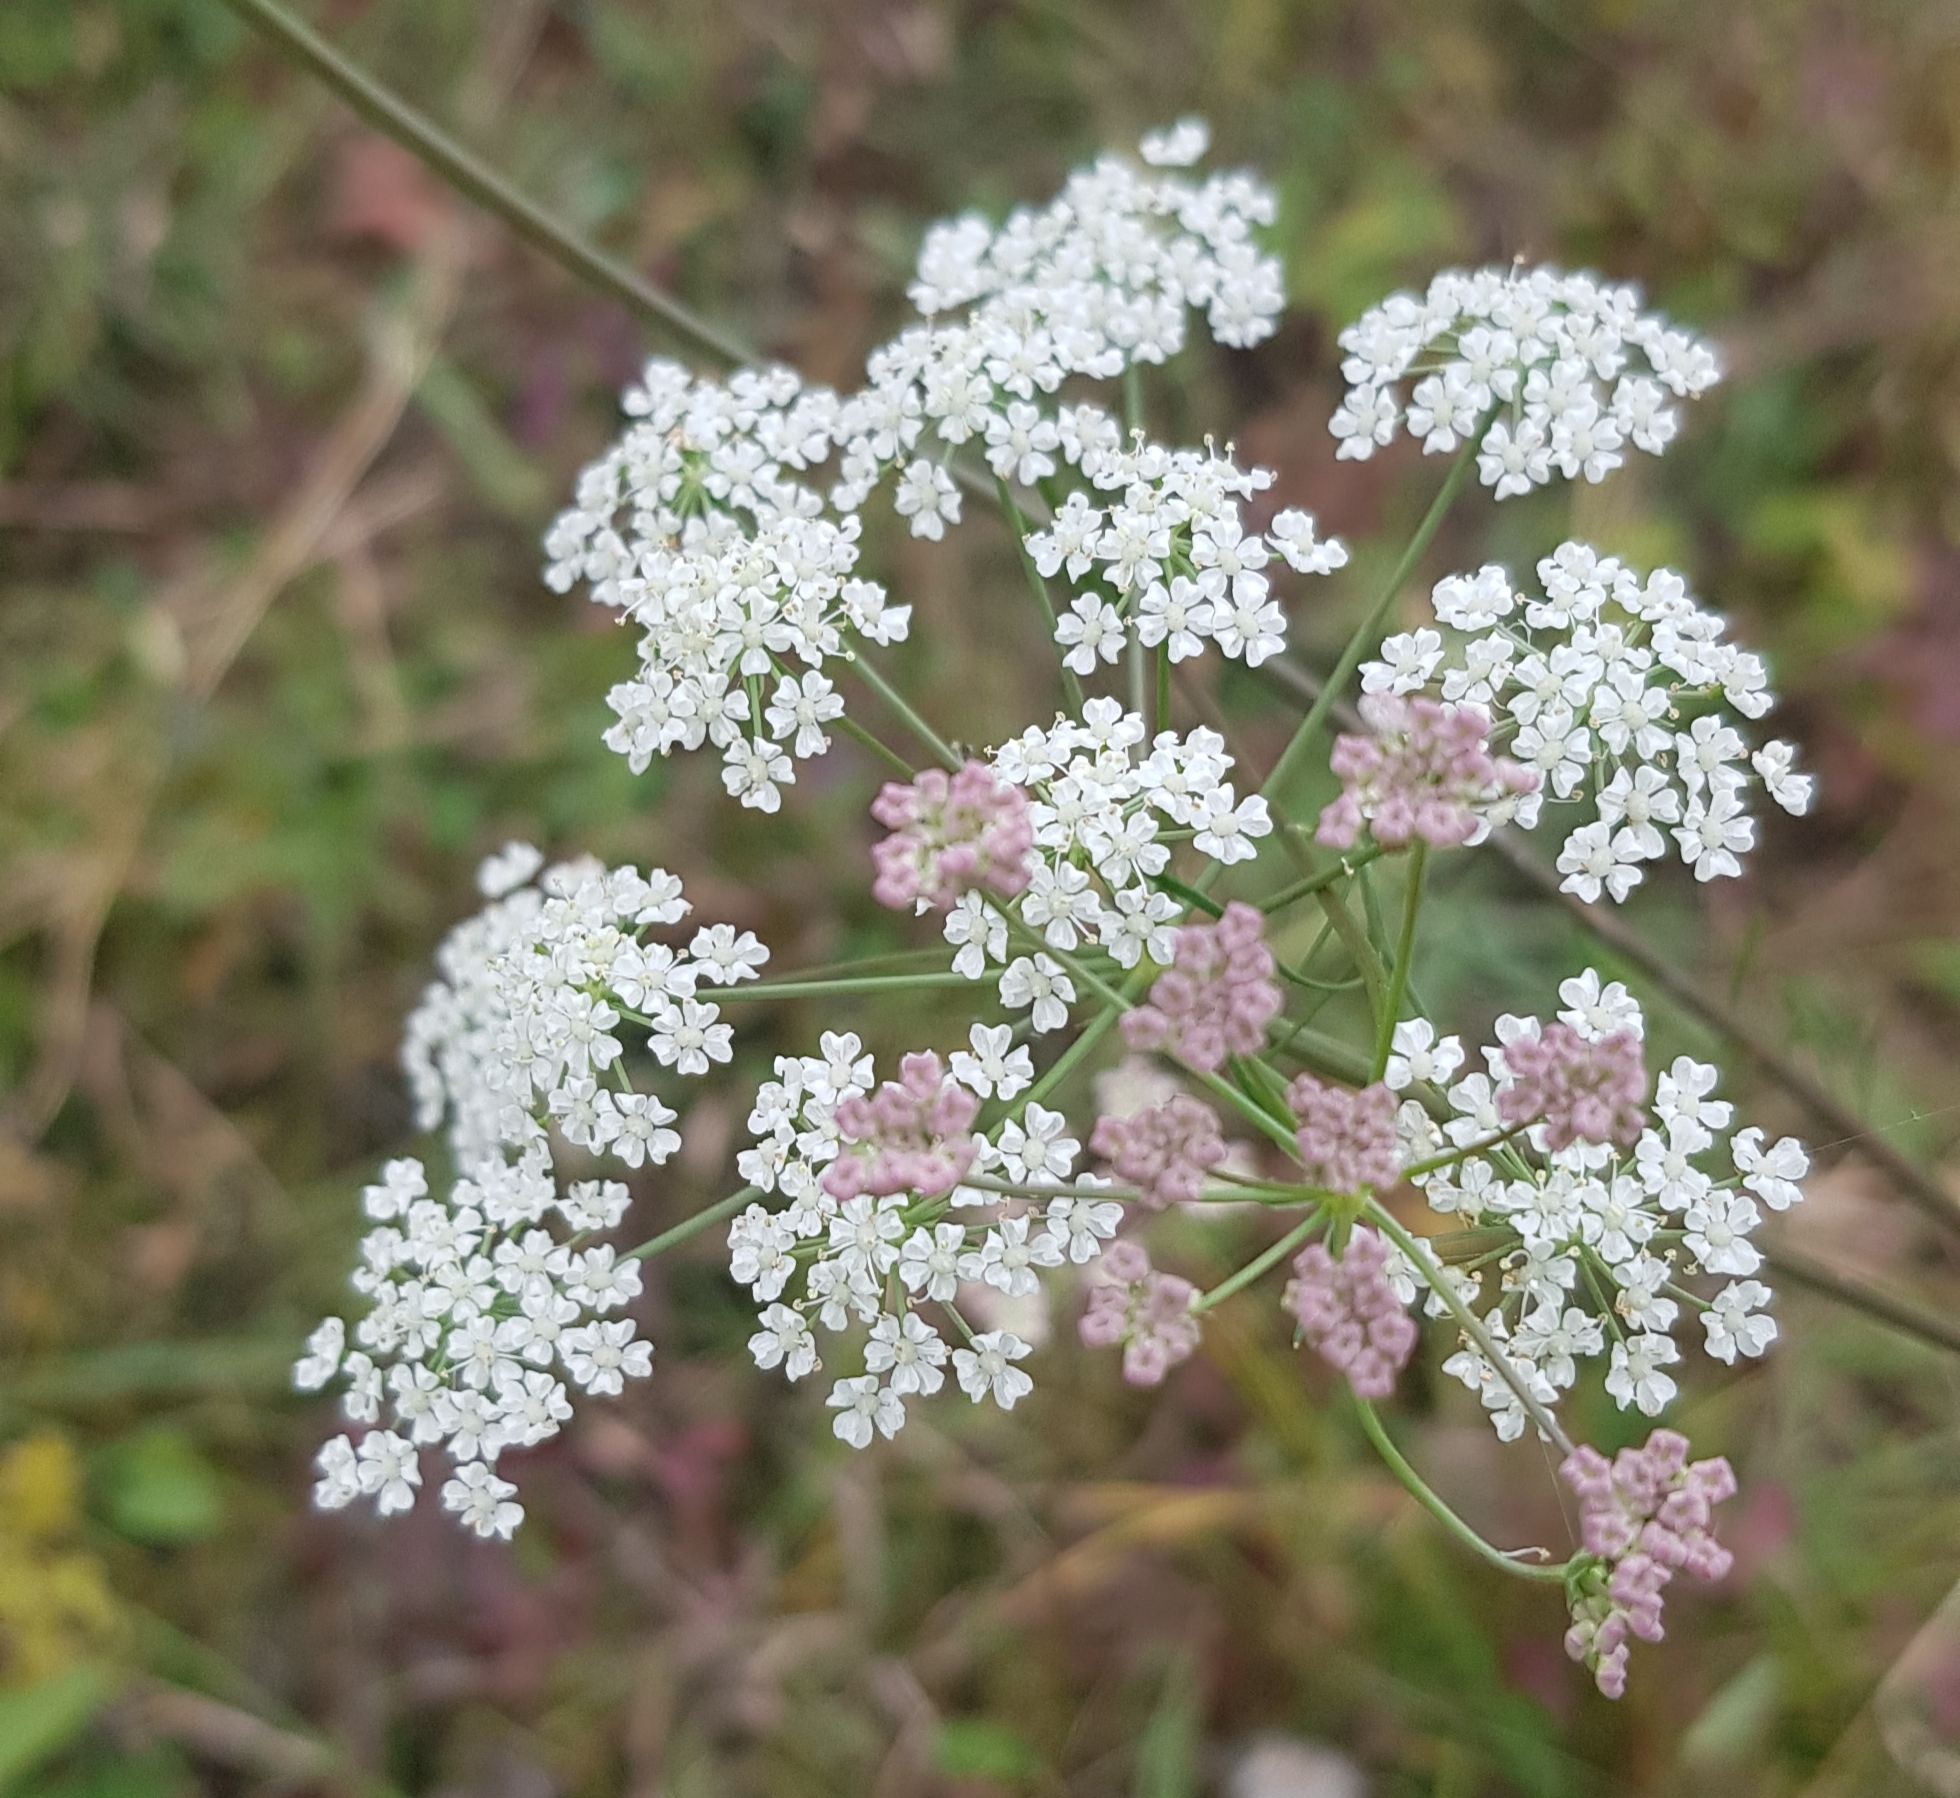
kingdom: Plantae
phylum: Tracheophyta
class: Magnoliopsida
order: Apiales
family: Apiaceae
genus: Carum
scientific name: Carum buriaticum
